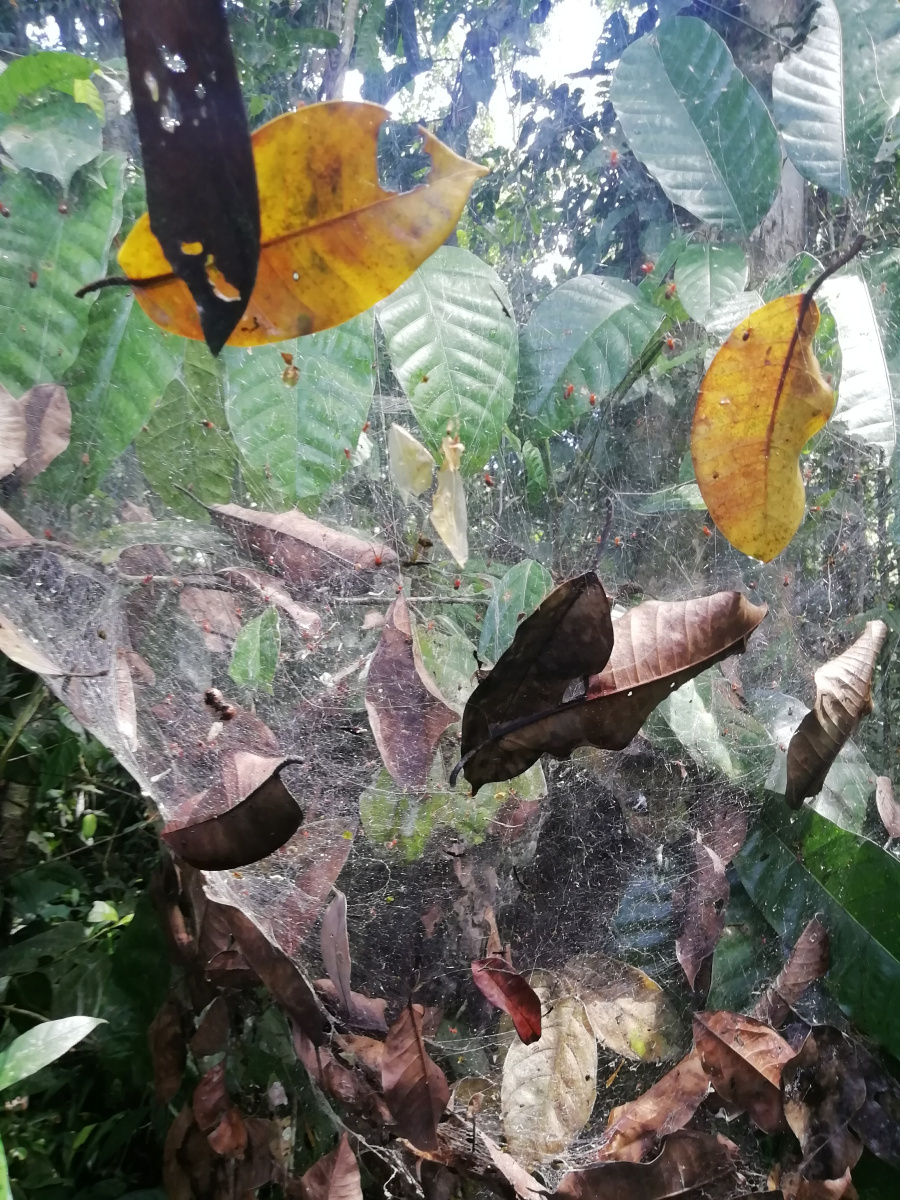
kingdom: Animalia
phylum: Arthropoda
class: Arachnida
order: Araneae
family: Theridiidae
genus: Anelosimus
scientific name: Anelosimus eximius
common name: Cobweb spiders
